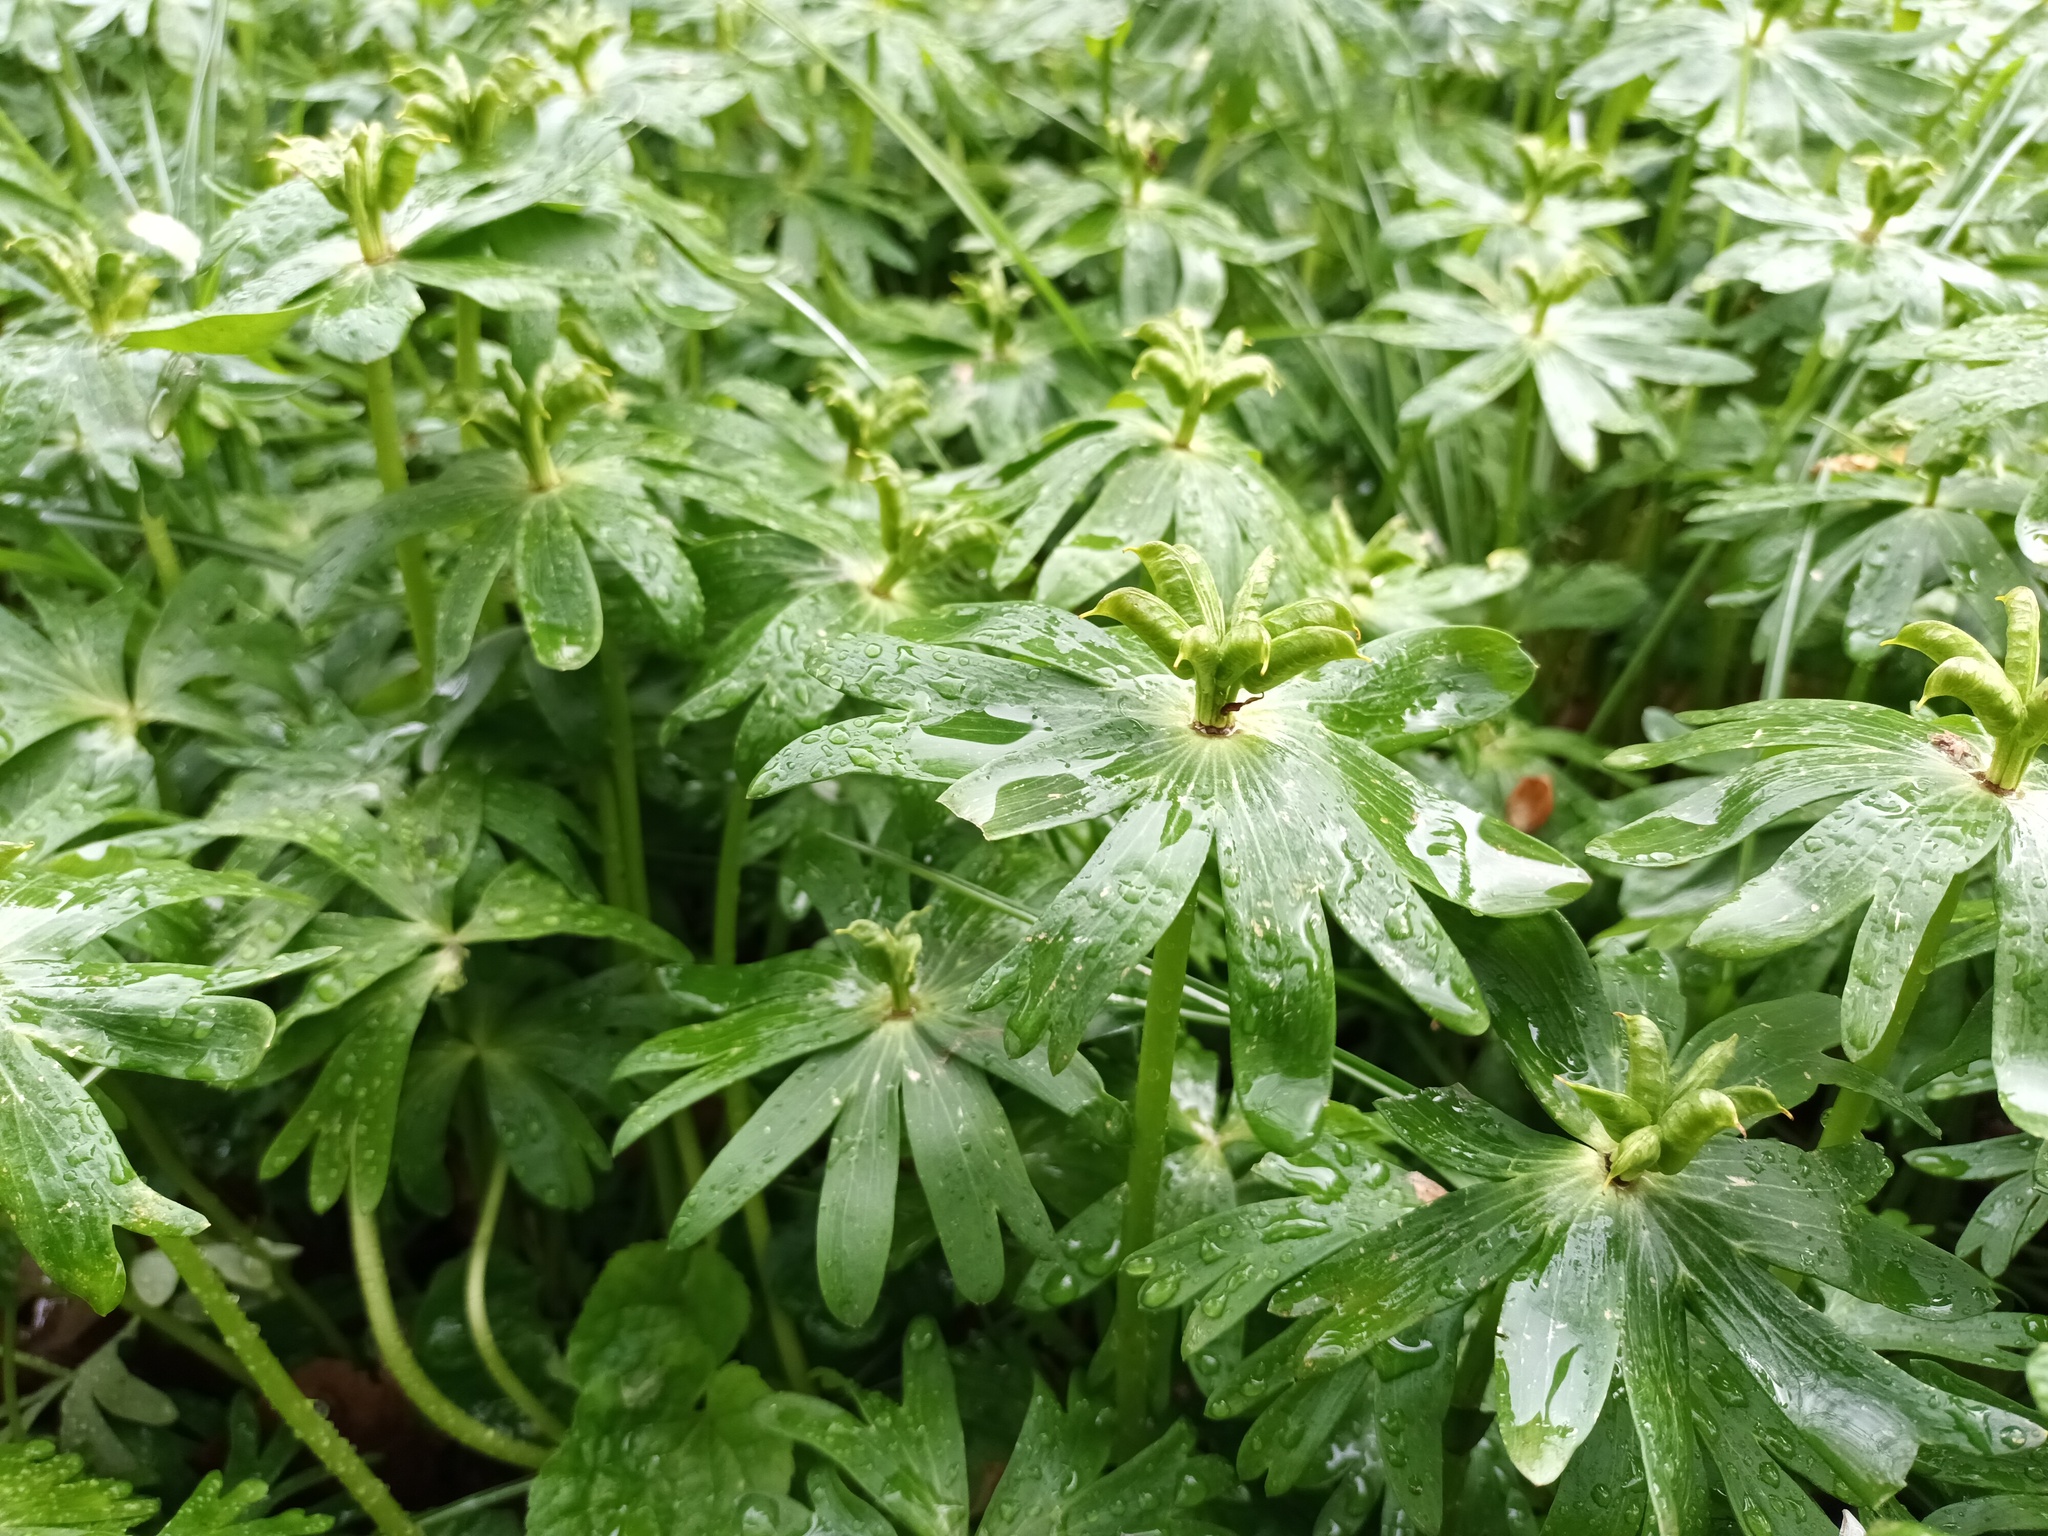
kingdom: Plantae
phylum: Tracheophyta
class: Magnoliopsida
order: Ranunculales
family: Ranunculaceae
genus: Eranthis
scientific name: Eranthis hyemalis
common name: Winter aconite
